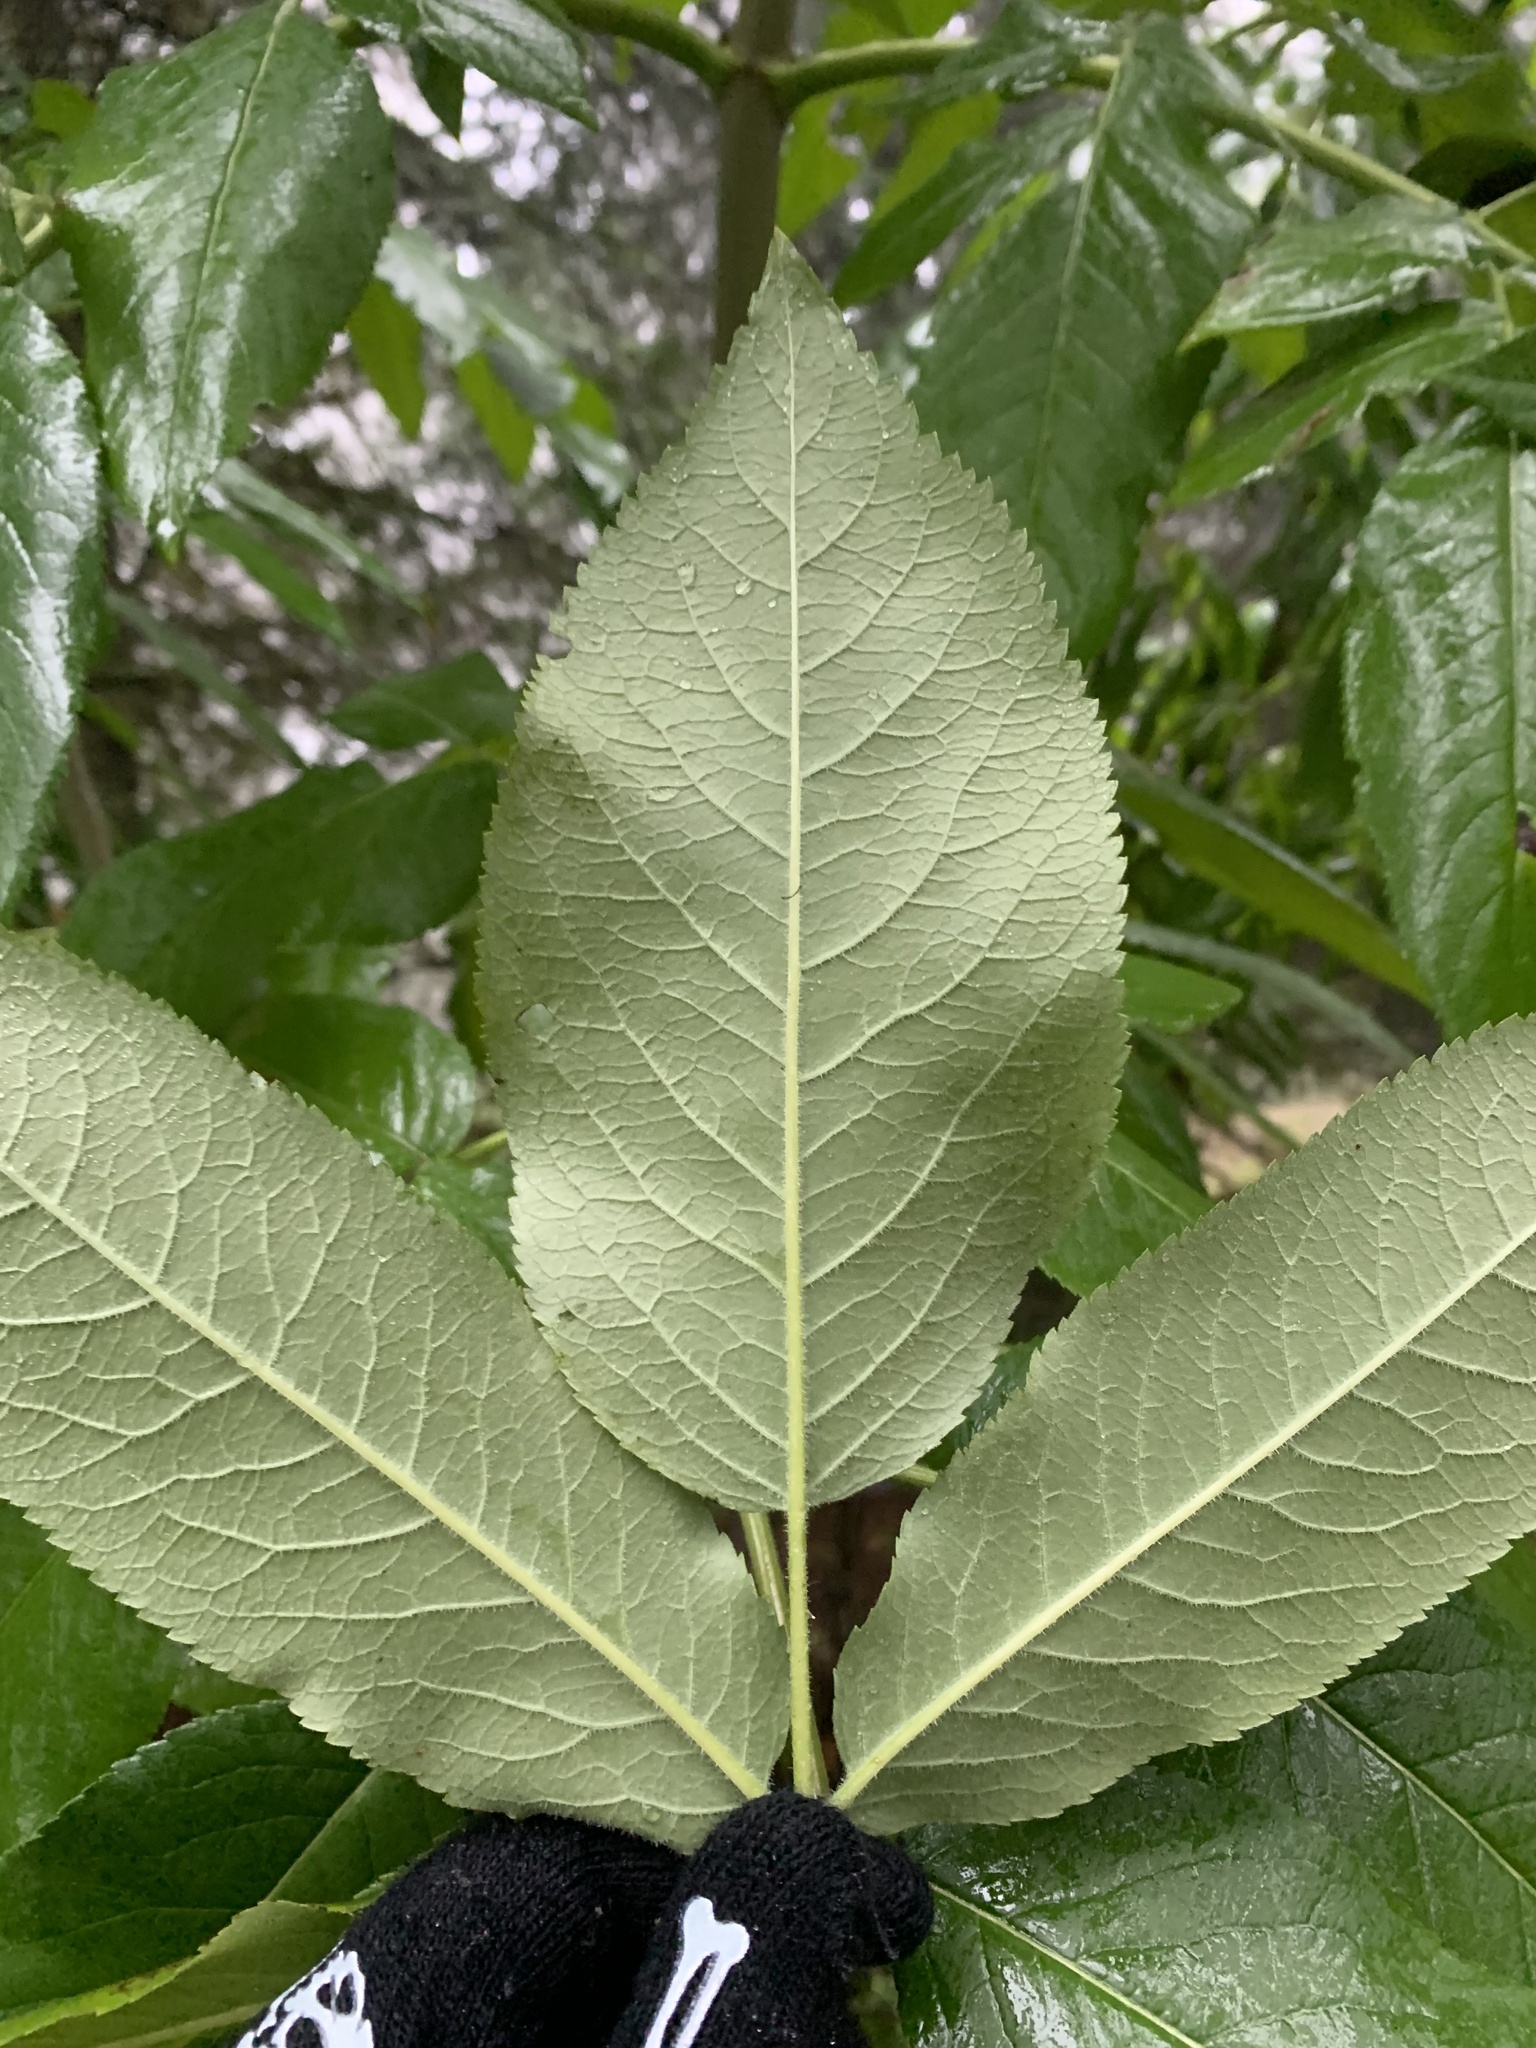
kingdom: Plantae
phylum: Tracheophyta
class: Magnoliopsida
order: Dipsacales
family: Viburnaceae
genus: Sambucus
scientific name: Sambucus cerulea
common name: Blue elder
